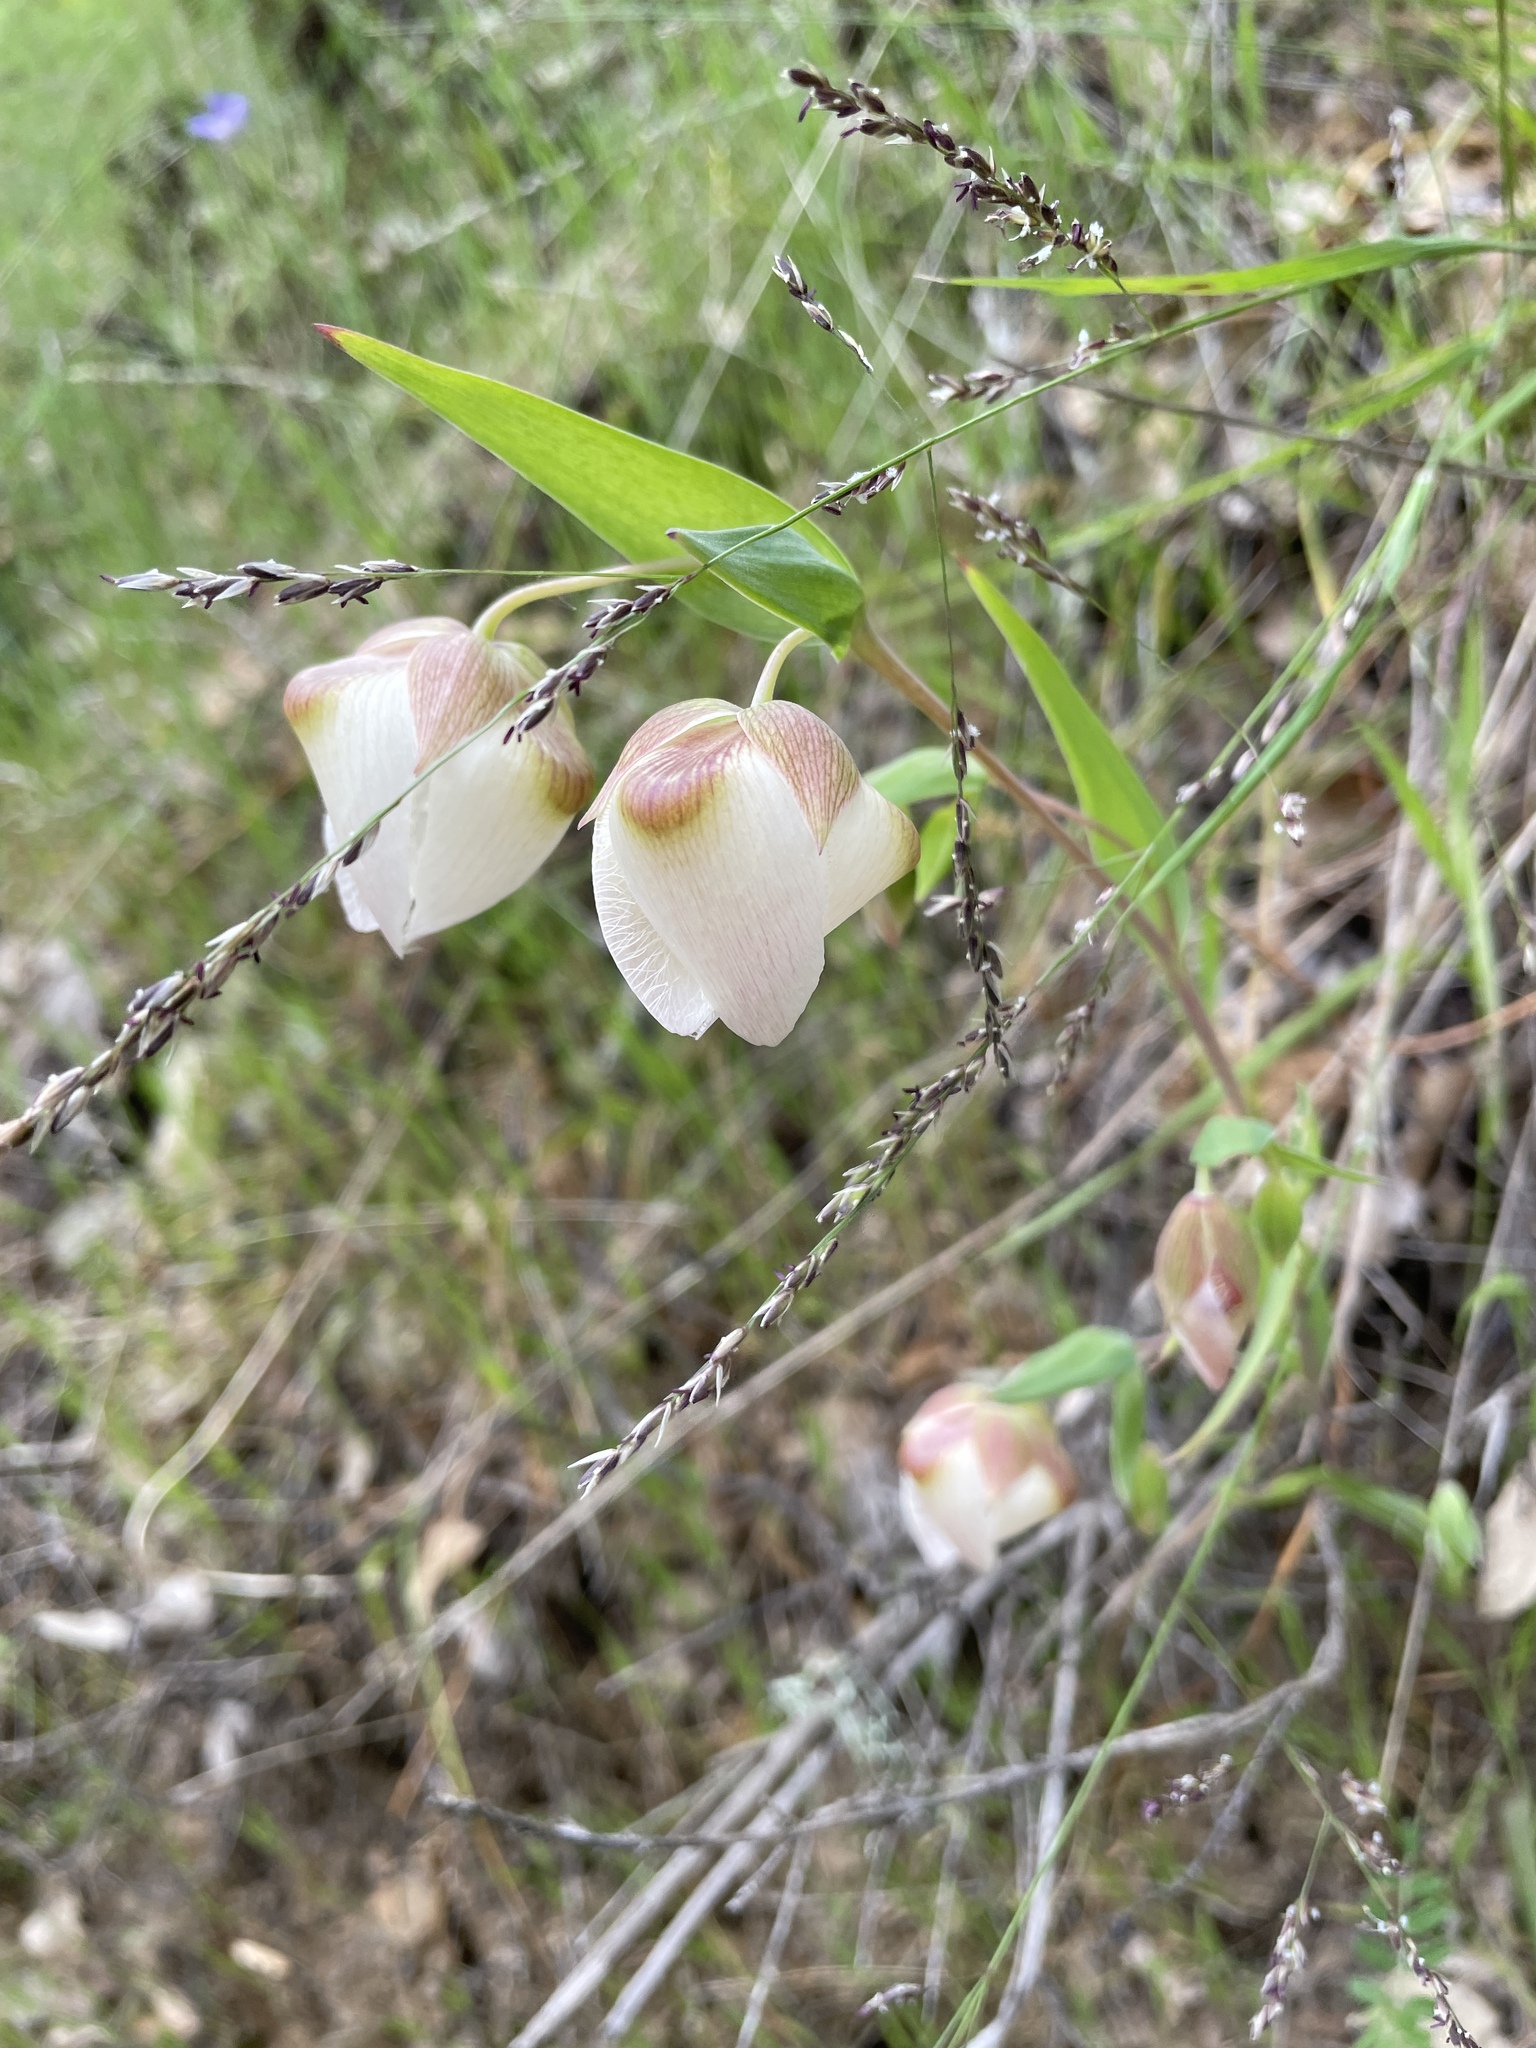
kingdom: Plantae
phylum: Tracheophyta
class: Liliopsida
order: Liliales
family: Liliaceae
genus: Calochortus
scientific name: Calochortus albus
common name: Fairy-lantern
